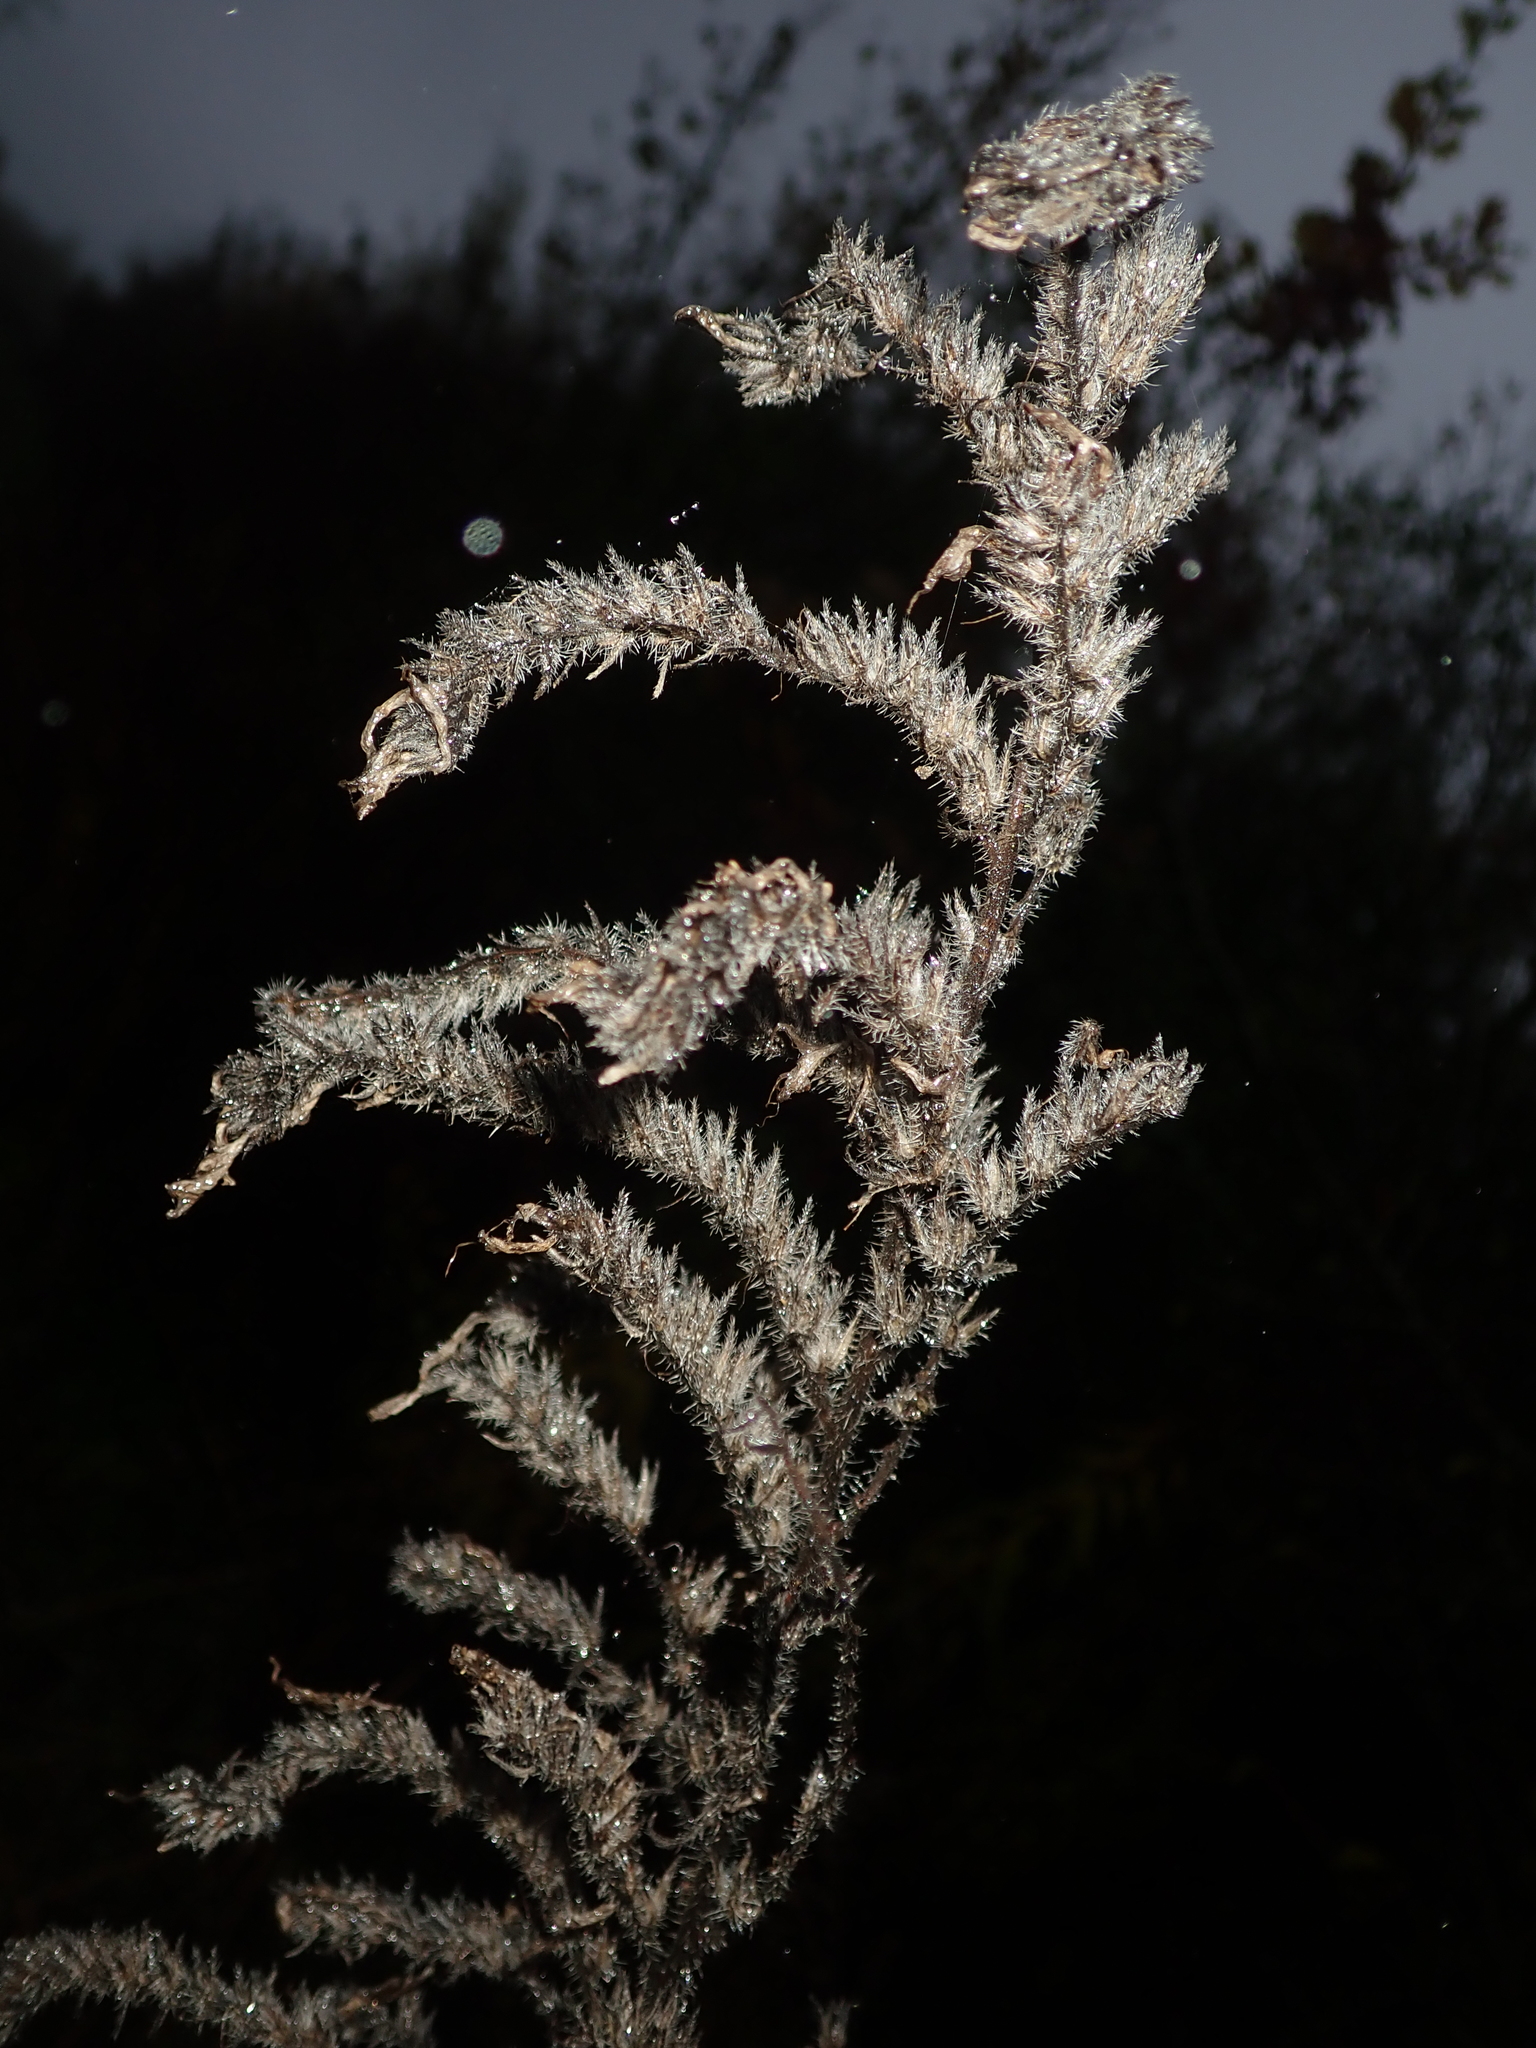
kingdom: Plantae
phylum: Tracheophyta
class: Magnoliopsida
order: Boraginales
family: Boraginaceae
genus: Echium
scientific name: Echium vulgare
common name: Common viper's bugloss
